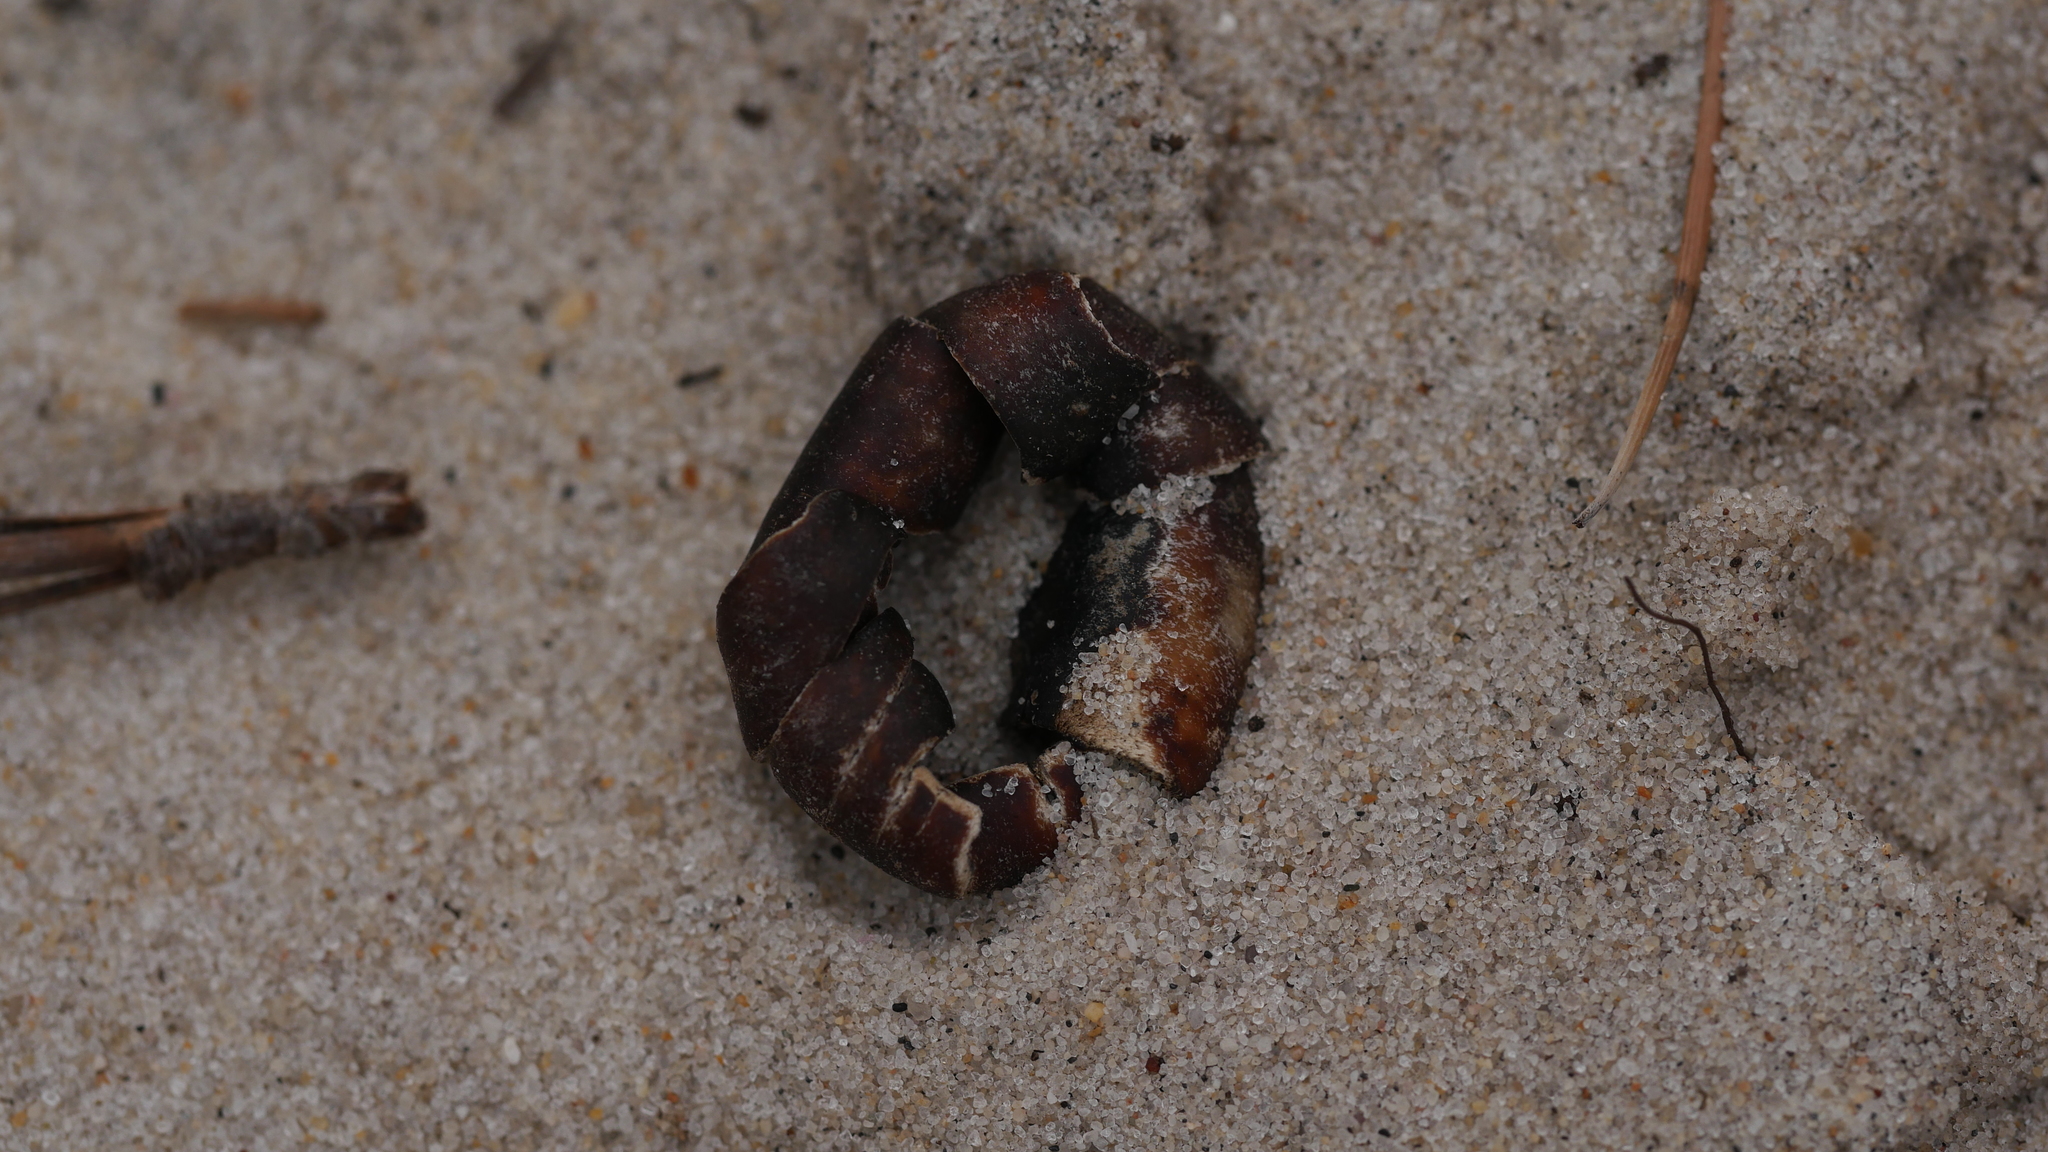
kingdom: Fungi
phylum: Basidiomycota
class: Agaricomycetes
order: Boletales
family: Diplocystidiaceae
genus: Astraeus
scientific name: Astraeus smithii
